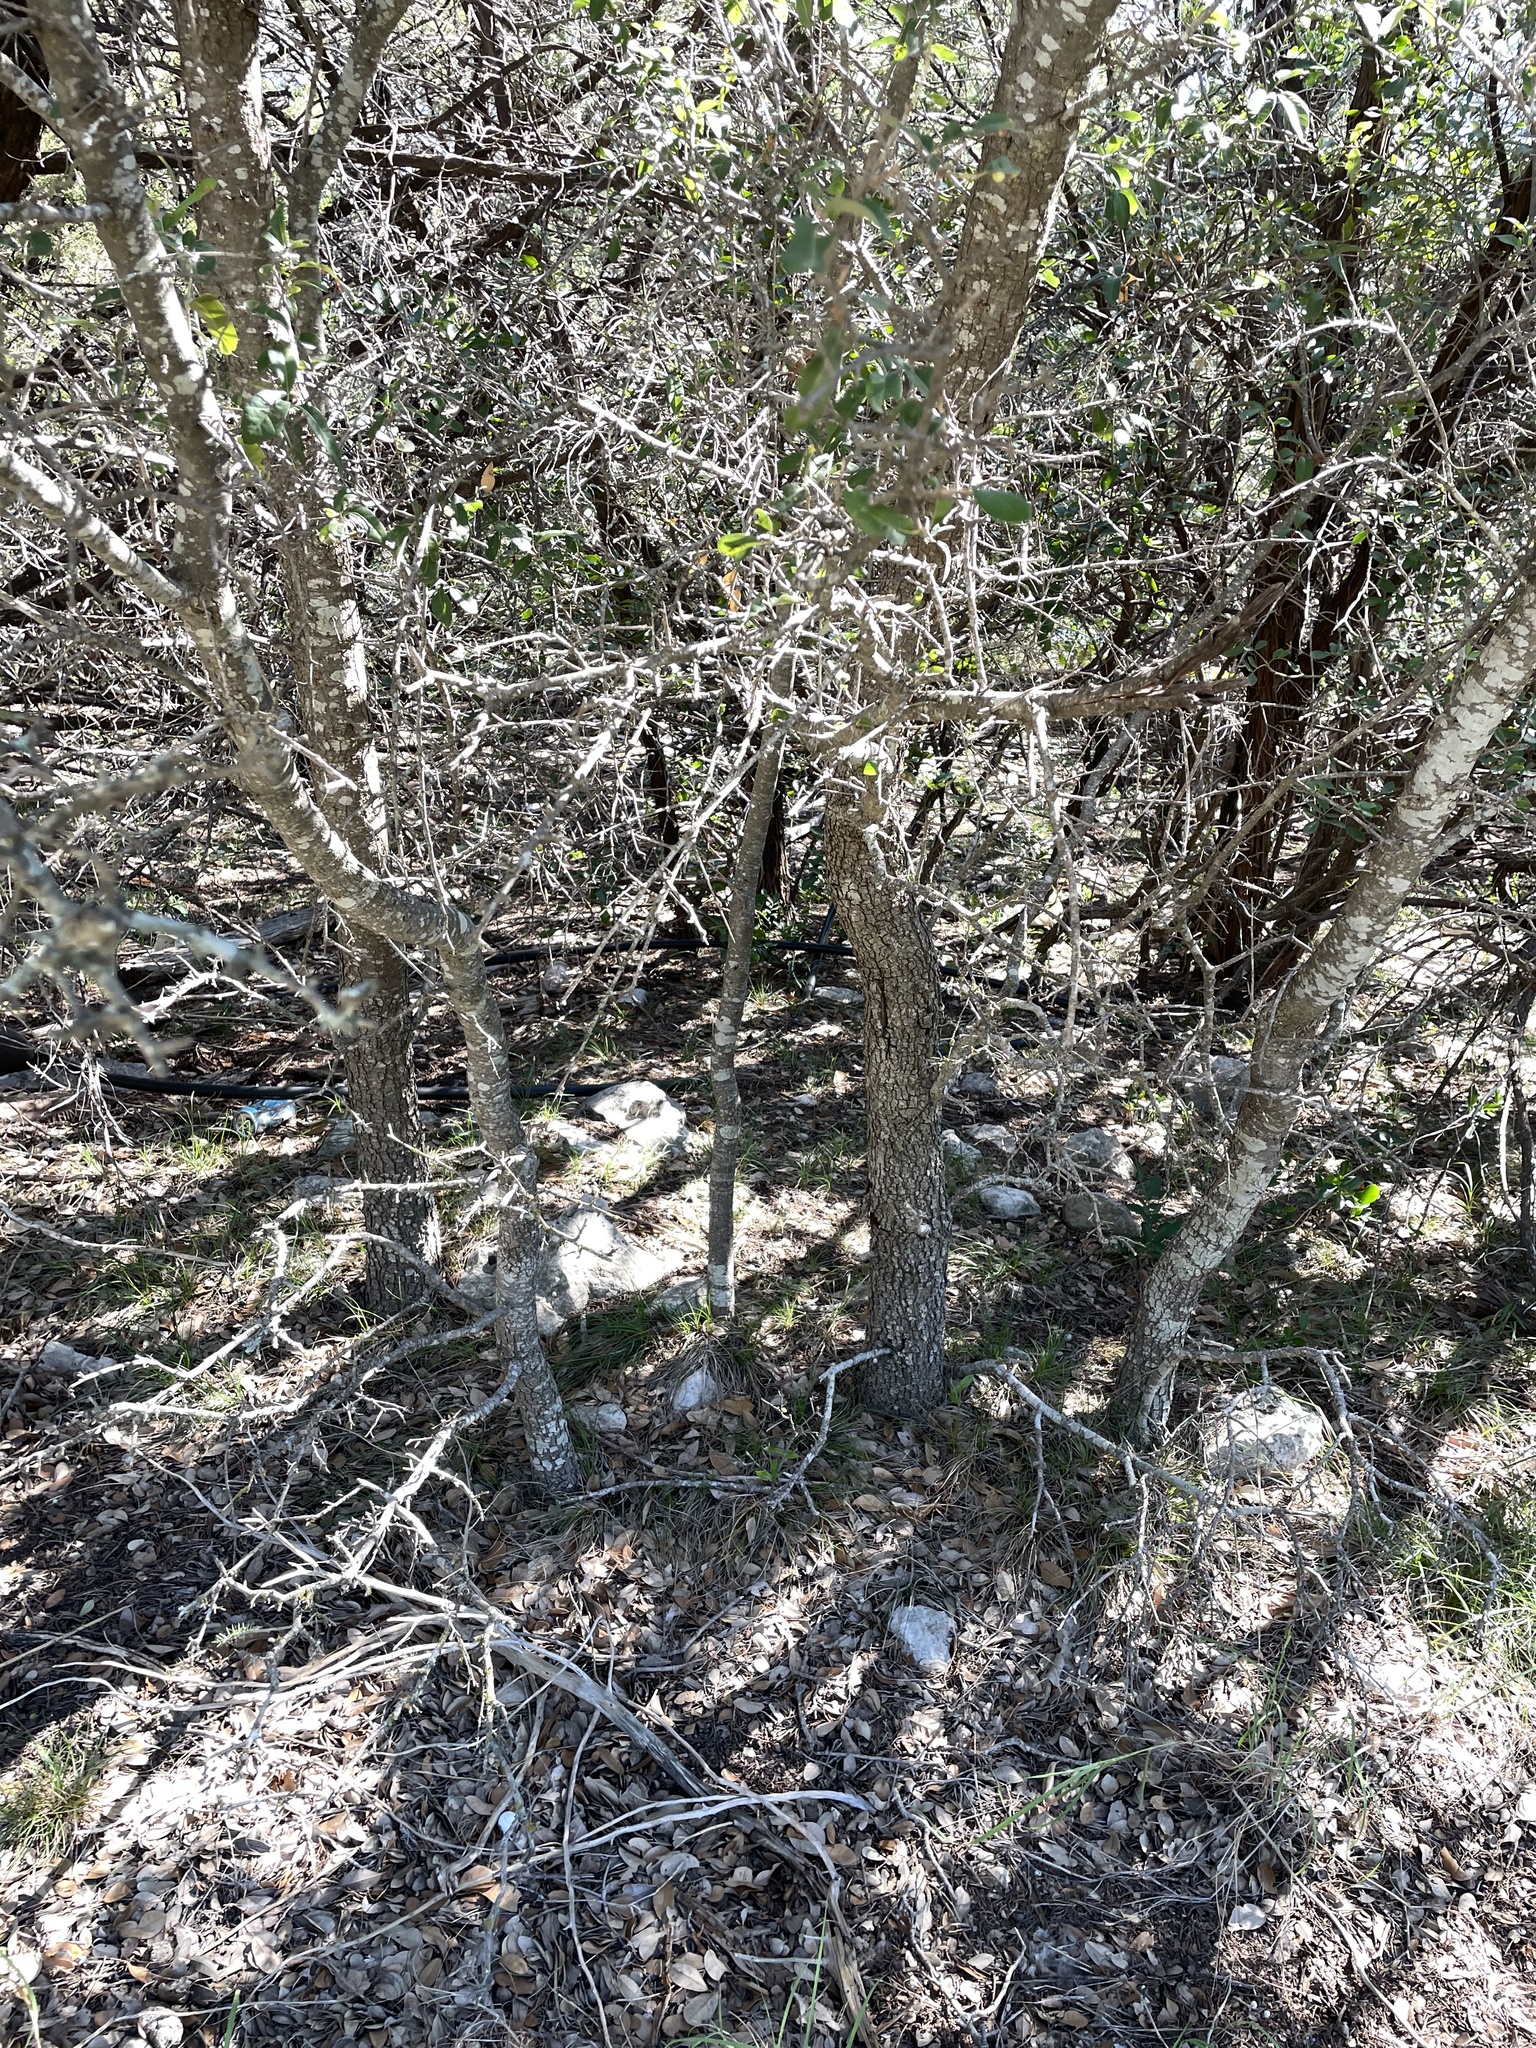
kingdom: Plantae
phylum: Tracheophyta
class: Magnoliopsida
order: Fagales
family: Fagaceae
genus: Quercus
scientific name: Quercus fusiformis
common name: Texas live oak
